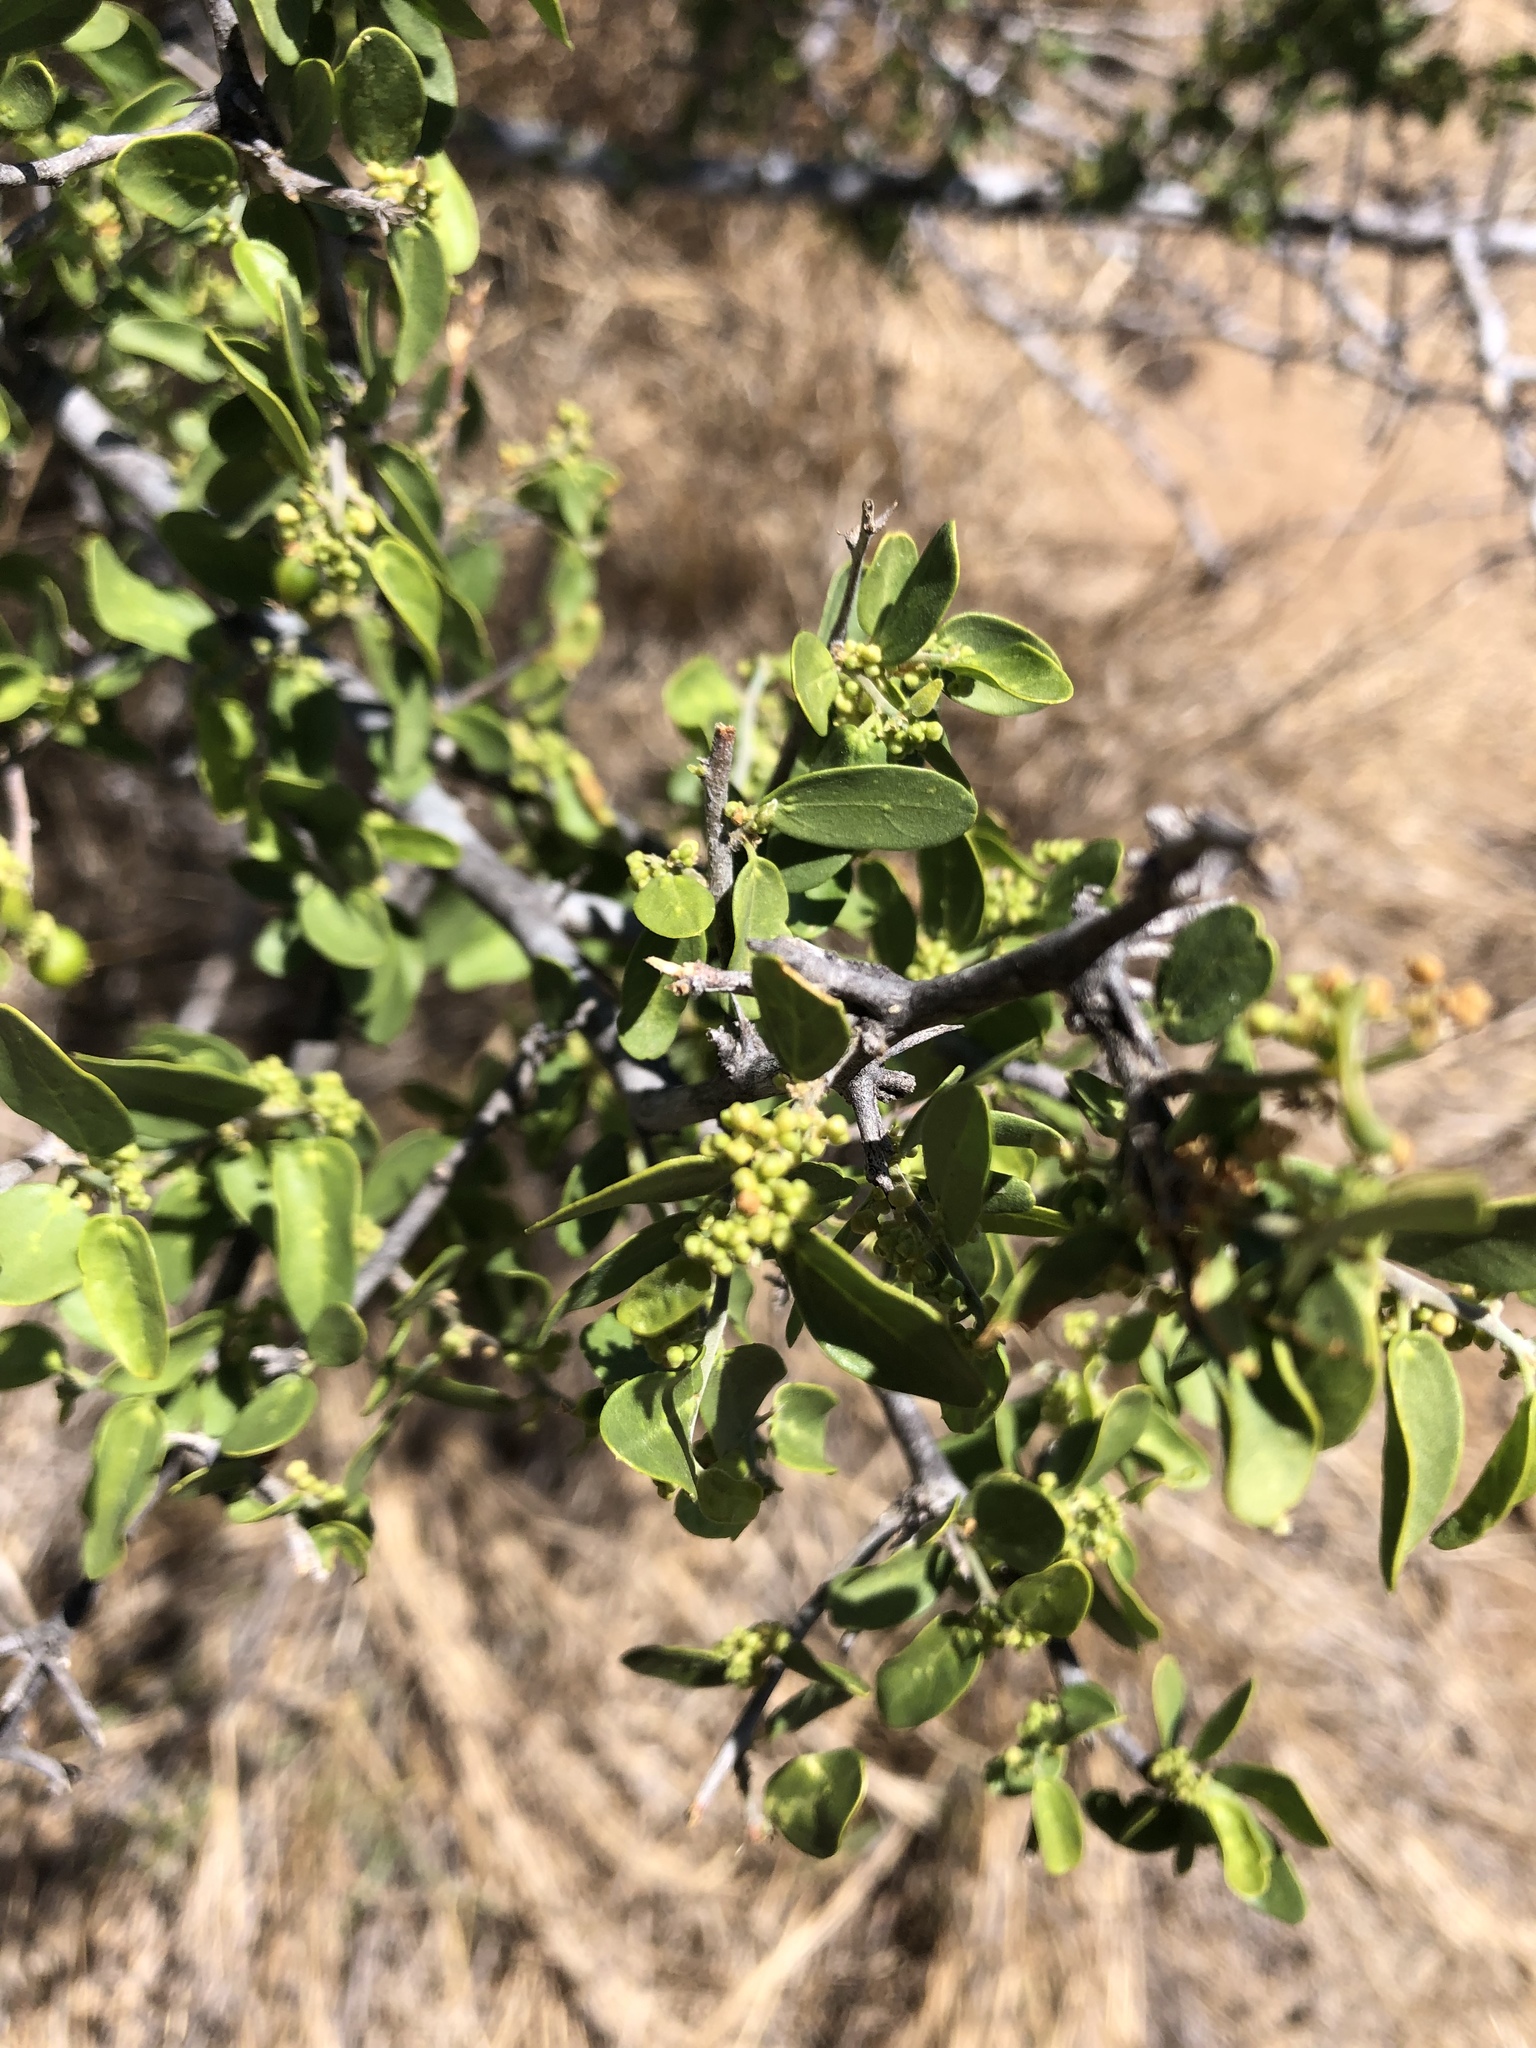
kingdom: Plantae
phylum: Tracheophyta
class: Magnoliopsida
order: Rosales
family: Cannabaceae
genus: Celtis
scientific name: Celtis pallida
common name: Desert hackberry
